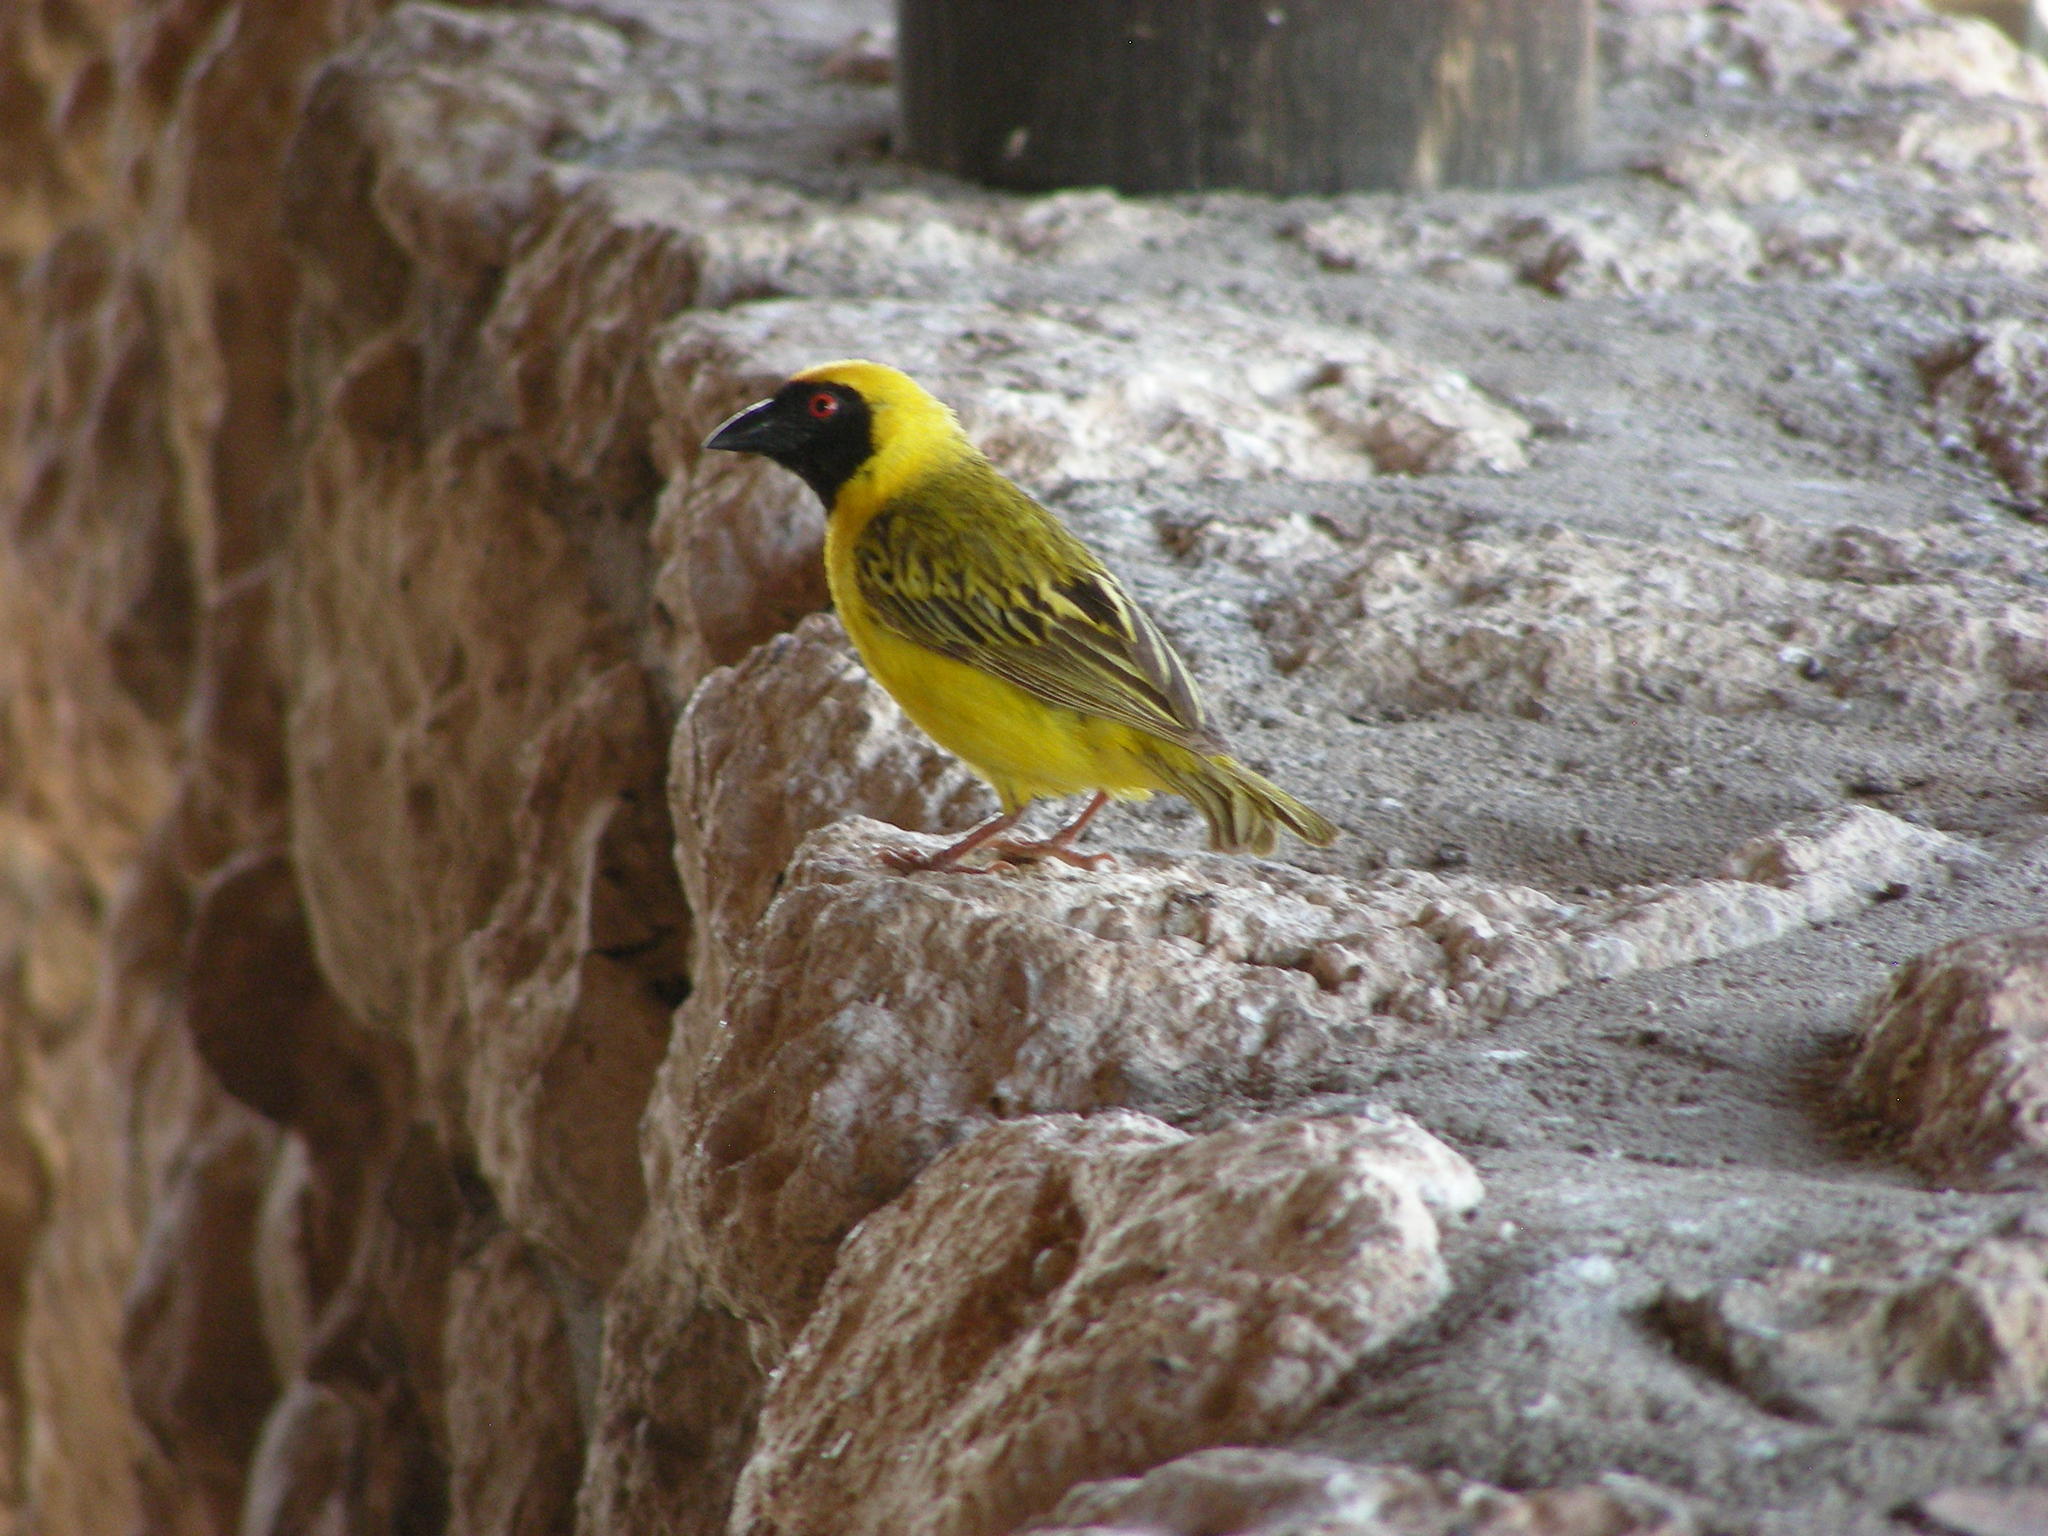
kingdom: Animalia
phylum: Chordata
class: Aves
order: Passeriformes
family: Ploceidae
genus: Ploceus
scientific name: Ploceus velatus
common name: Southern masked weaver
